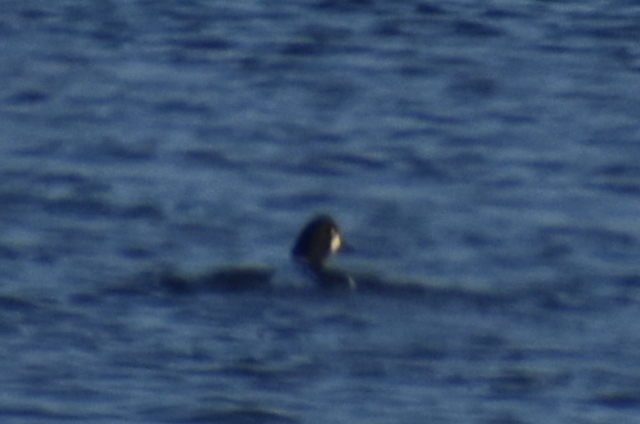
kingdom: Animalia
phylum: Chordata
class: Aves
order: Anseriformes
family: Anatidae
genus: Bucephala
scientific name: Bucephala clangula
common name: Common goldeneye
